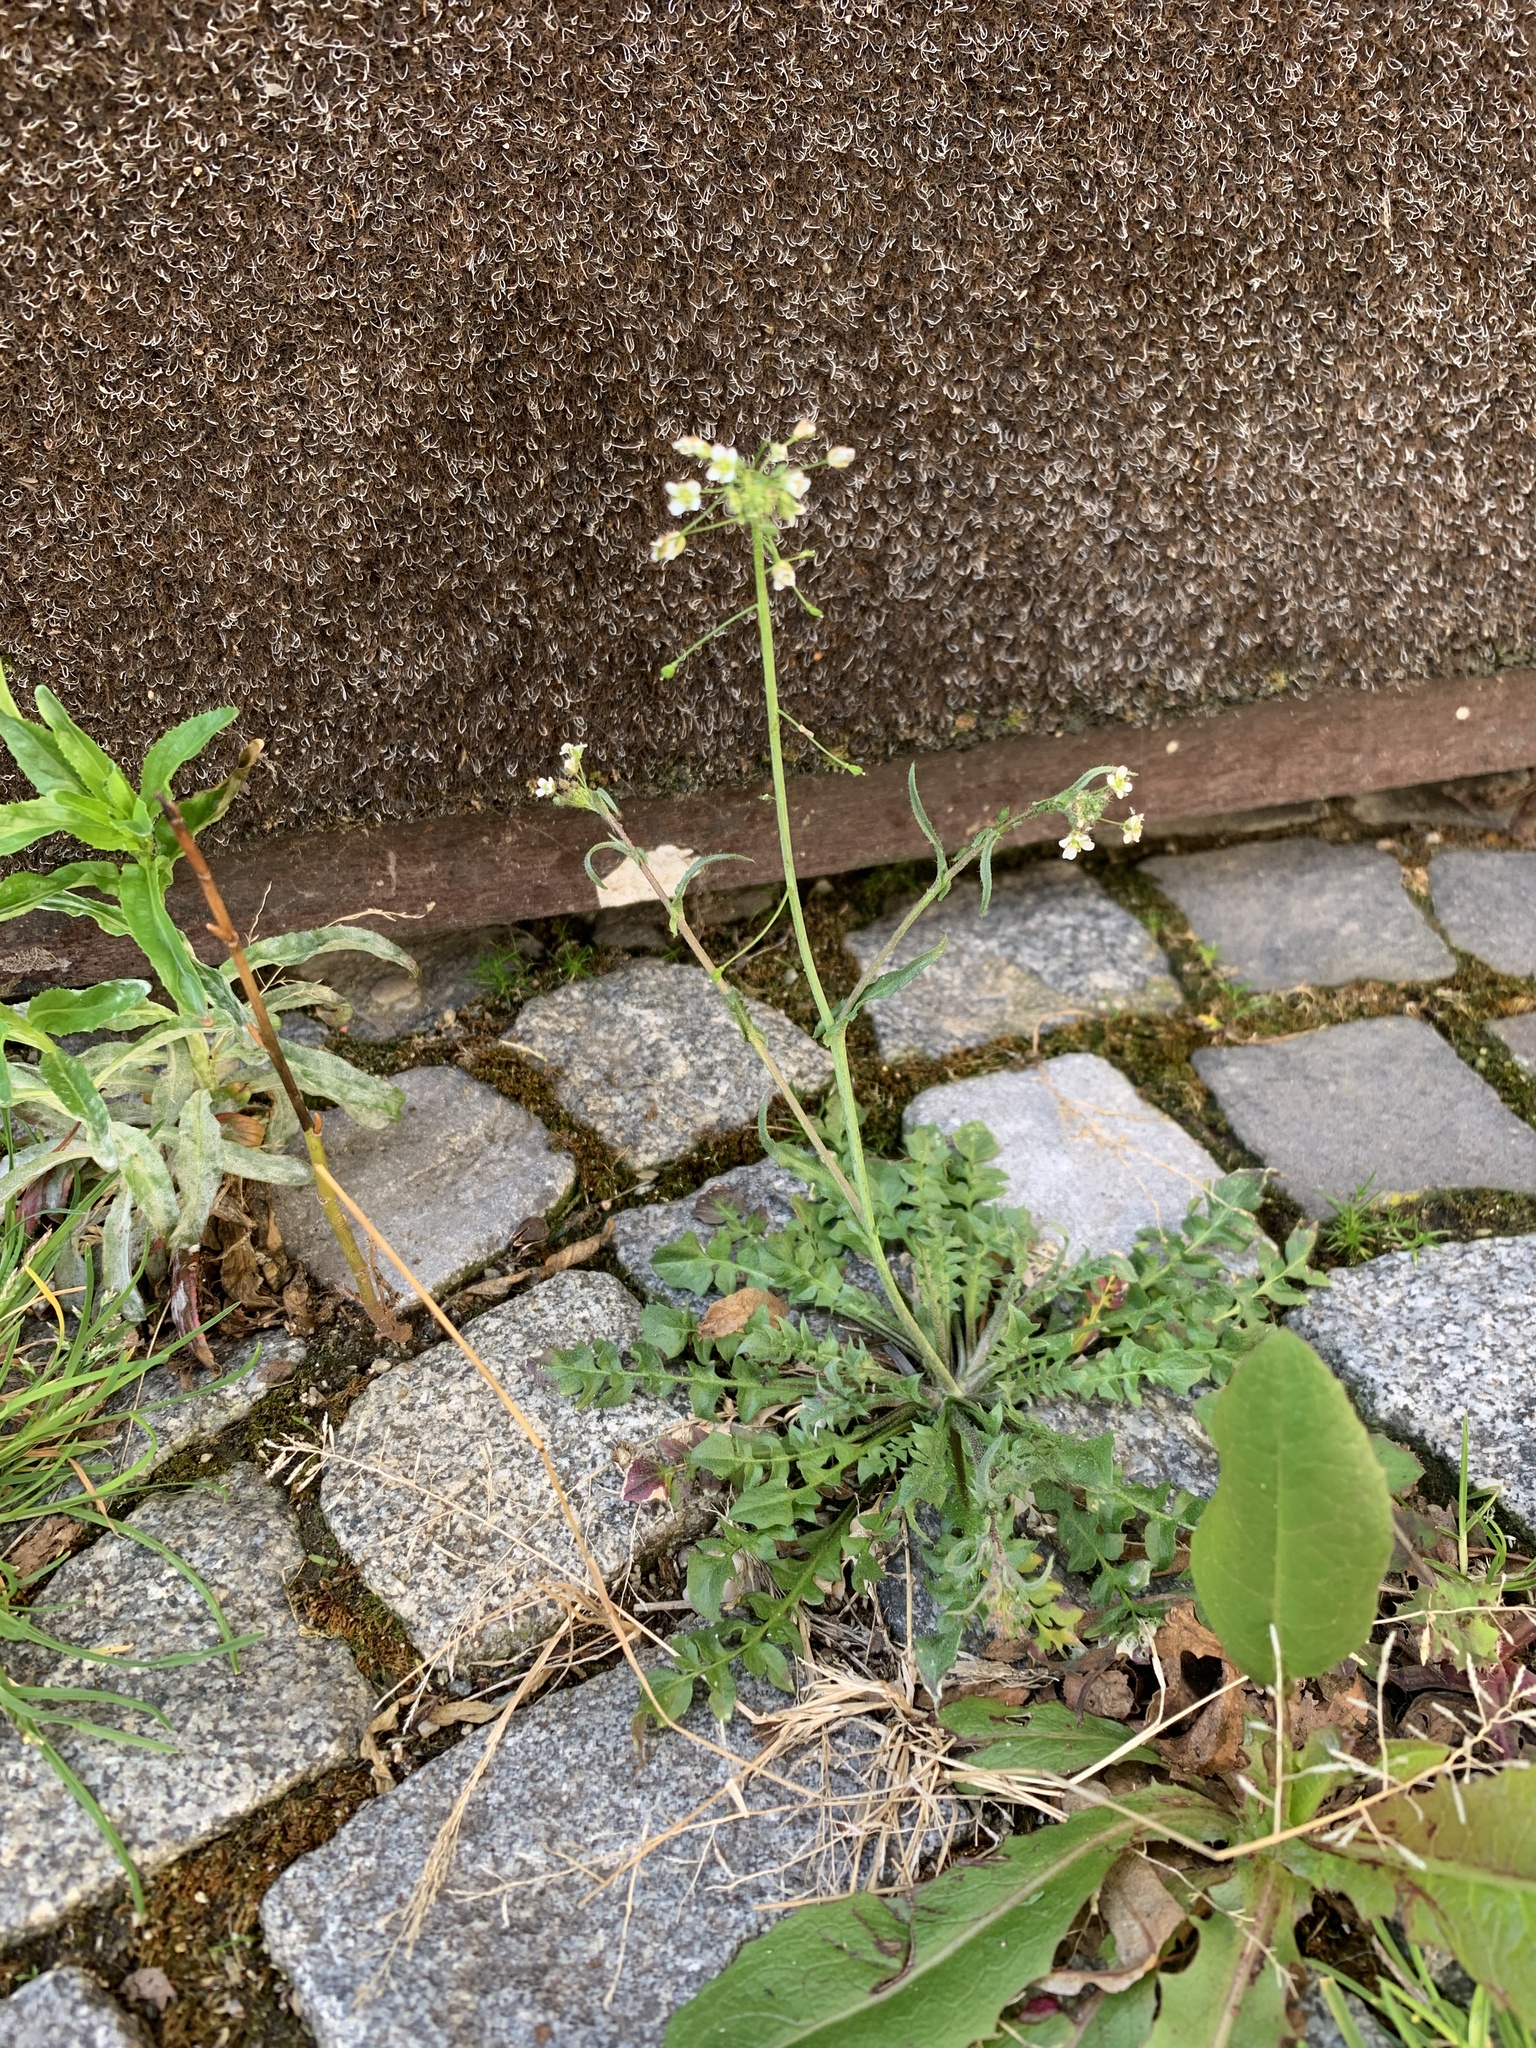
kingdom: Plantae
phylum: Tracheophyta
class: Magnoliopsida
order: Brassicales
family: Brassicaceae
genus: Capsella
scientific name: Capsella bursa-pastoris
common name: Shepherd's purse
